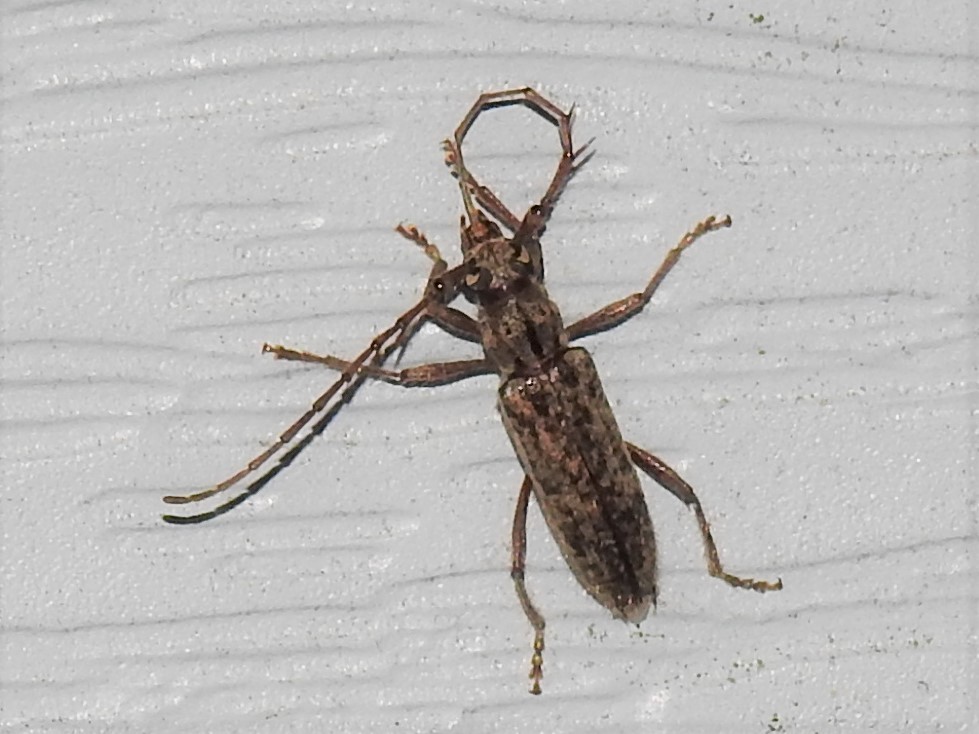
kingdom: Animalia
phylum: Arthropoda
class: Insecta
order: Coleoptera
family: Cerambycidae
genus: Elaphidion
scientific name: Elaphidion mucronatum
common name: Spined oak borer
